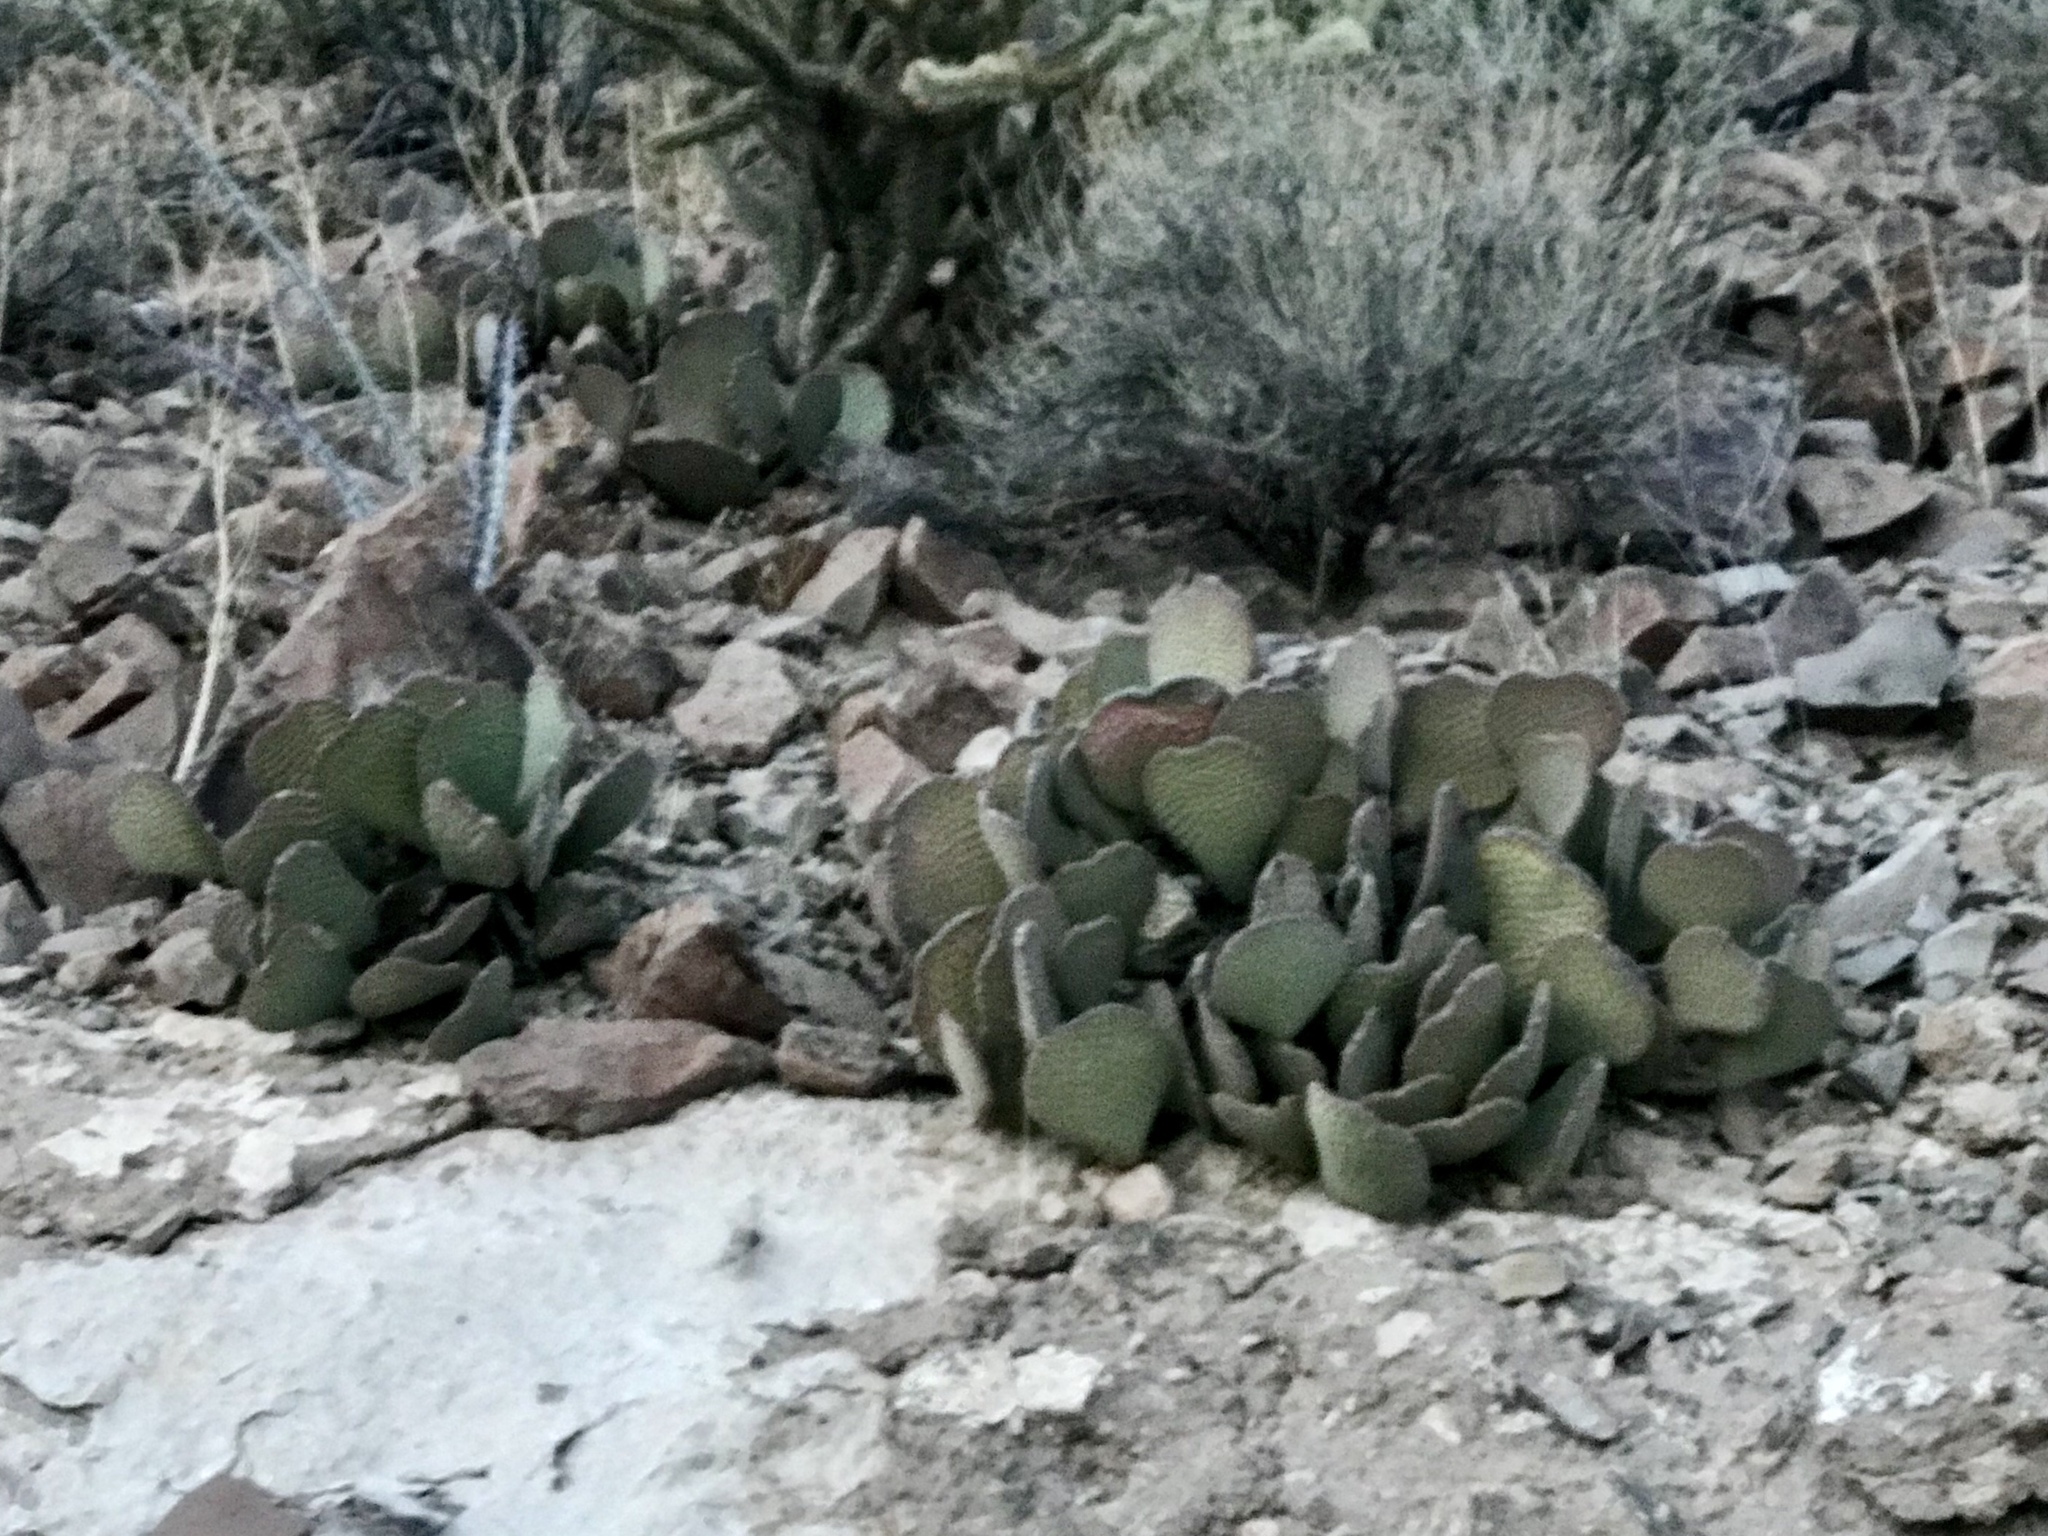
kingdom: Plantae
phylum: Tracheophyta
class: Magnoliopsida
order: Caryophyllales
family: Cactaceae
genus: Opuntia
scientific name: Opuntia basilaris
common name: Beavertail prickly-pear
